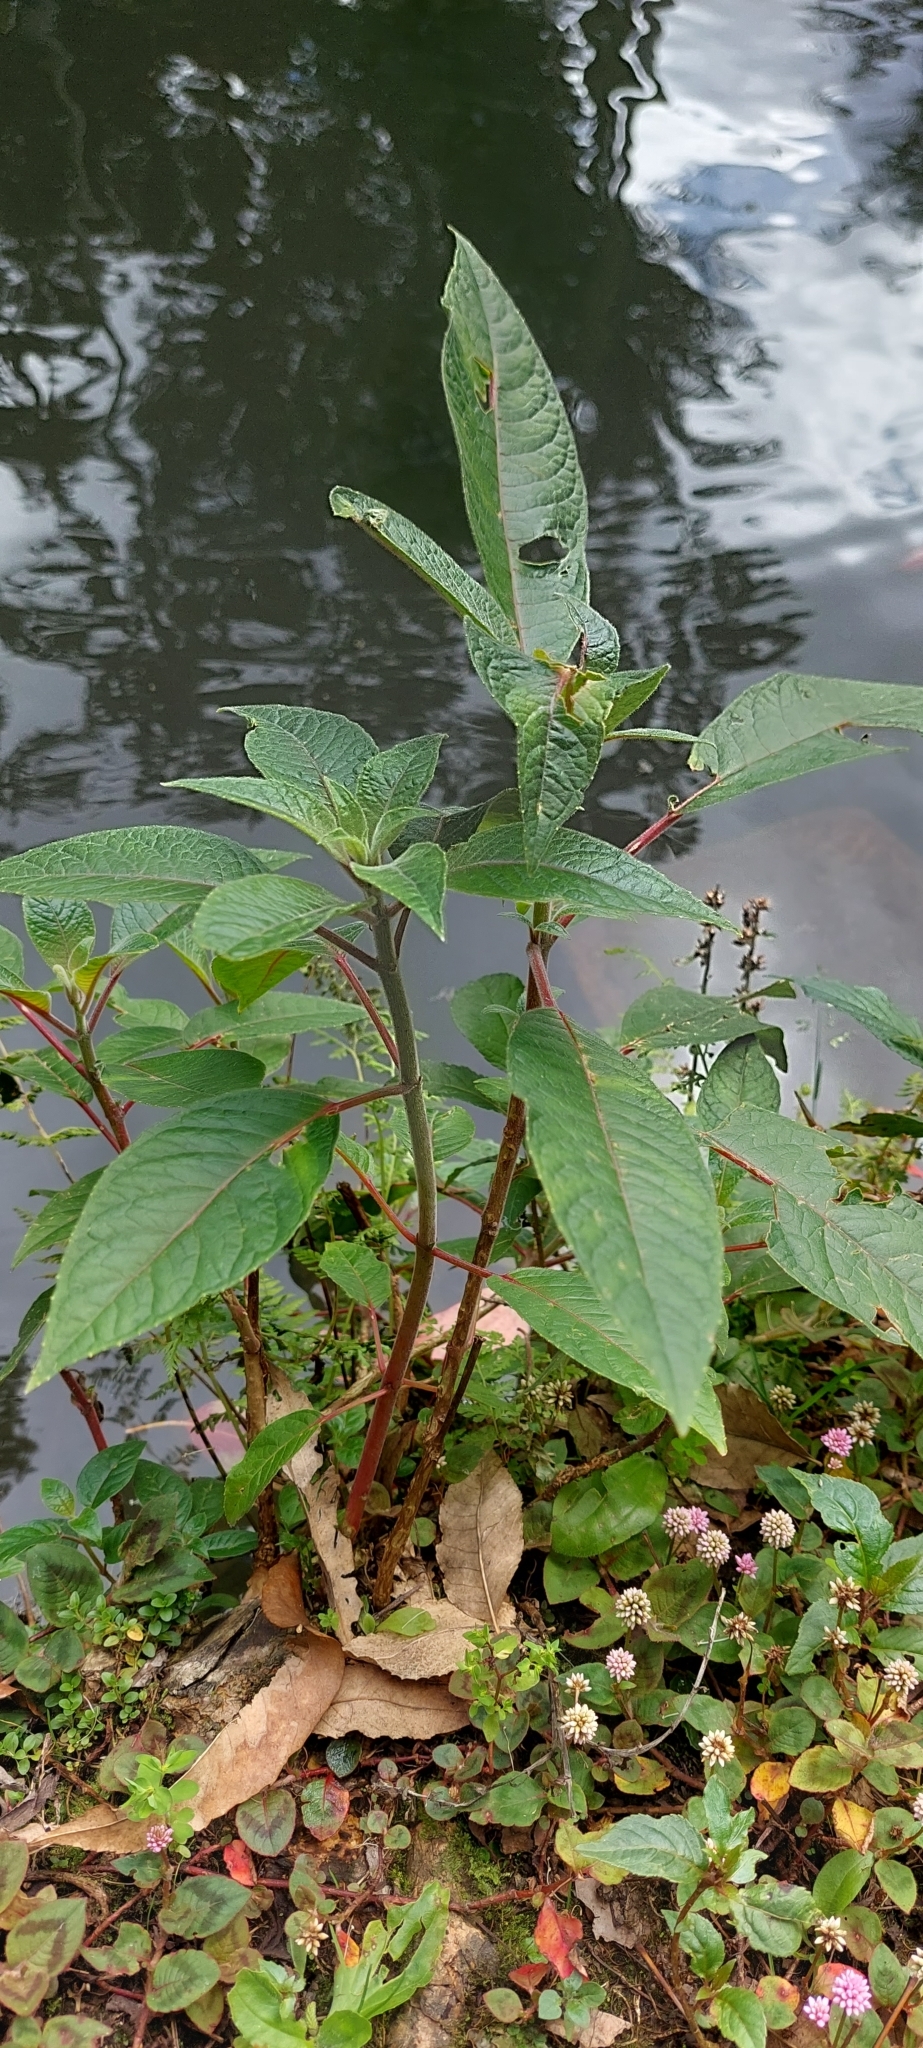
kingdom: Plantae
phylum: Tracheophyta
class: Magnoliopsida
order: Myrtales
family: Onagraceae
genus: Fuchsia
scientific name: Fuchsia boliviana
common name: Bolivian fuchsia
